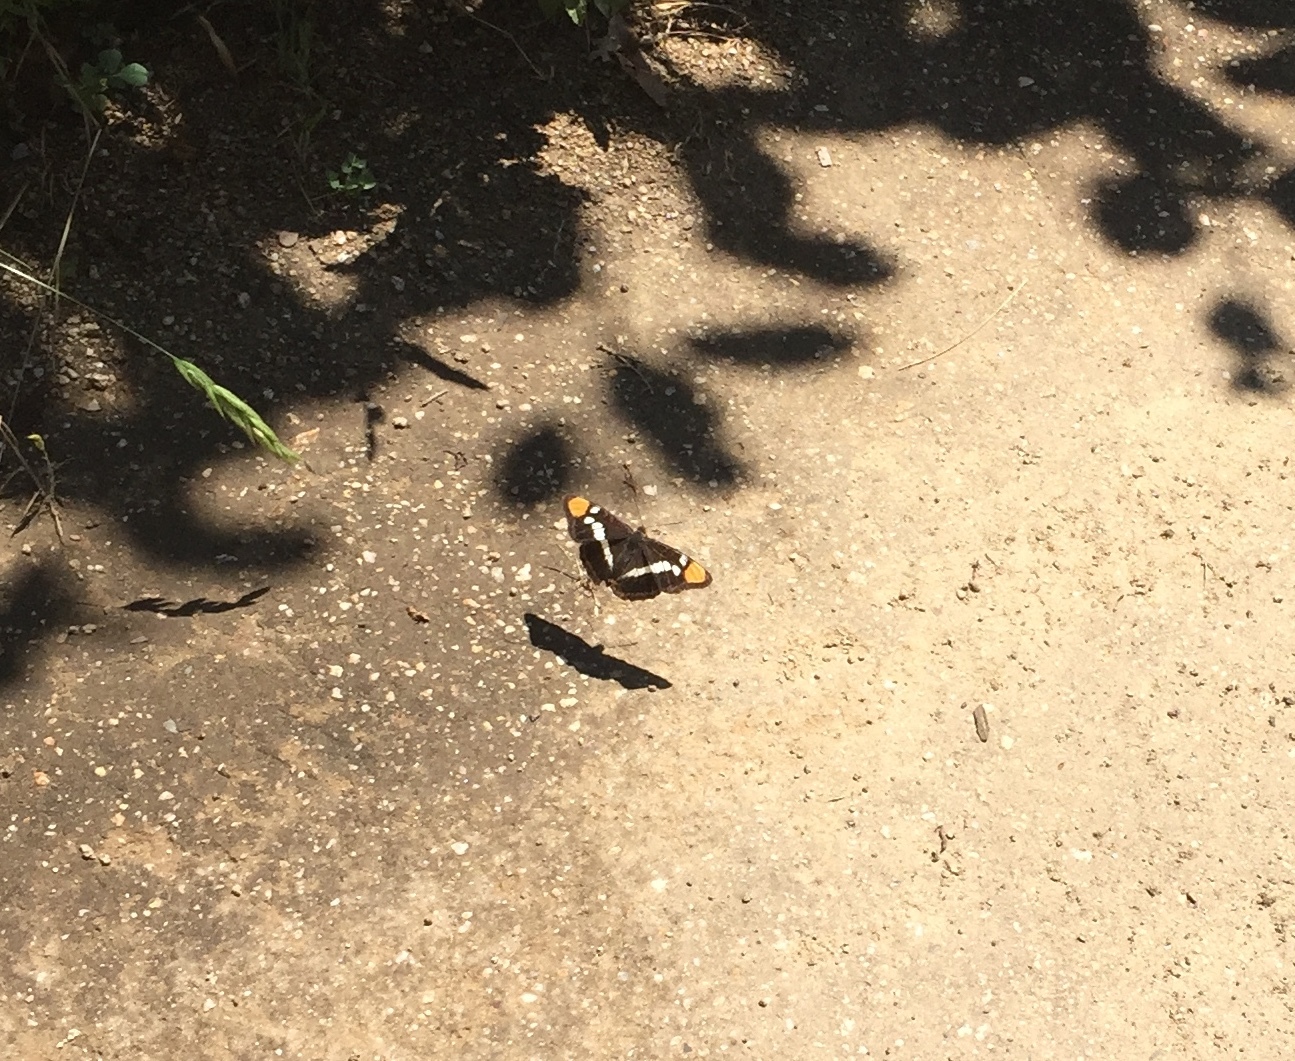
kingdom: Animalia
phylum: Arthropoda
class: Insecta
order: Lepidoptera
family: Nymphalidae
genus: Limenitis
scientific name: Limenitis bredowii
